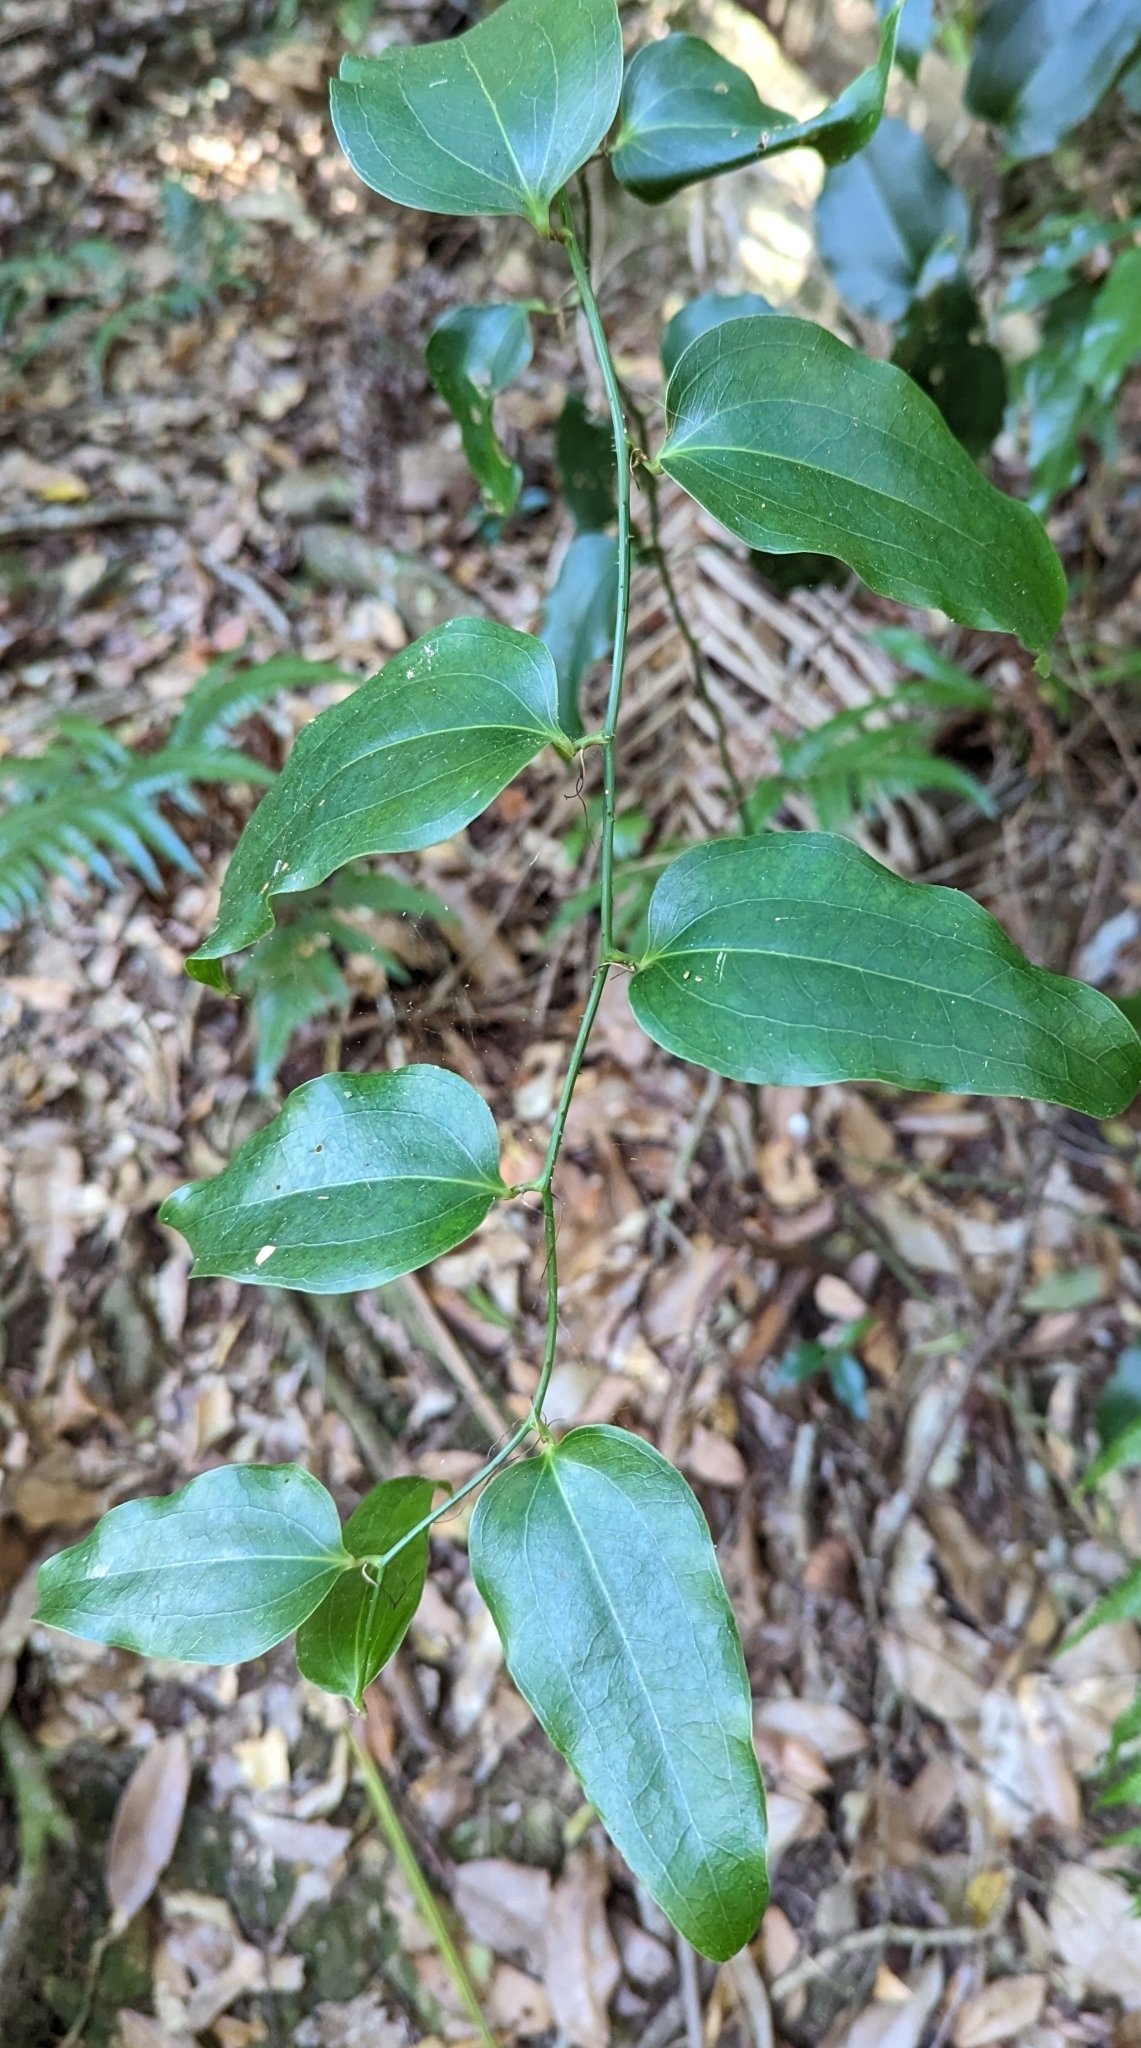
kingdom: Plantae
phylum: Tracheophyta
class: Liliopsida
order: Liliales
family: Smilacaceae
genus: Smilax
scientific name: Smilax australis
